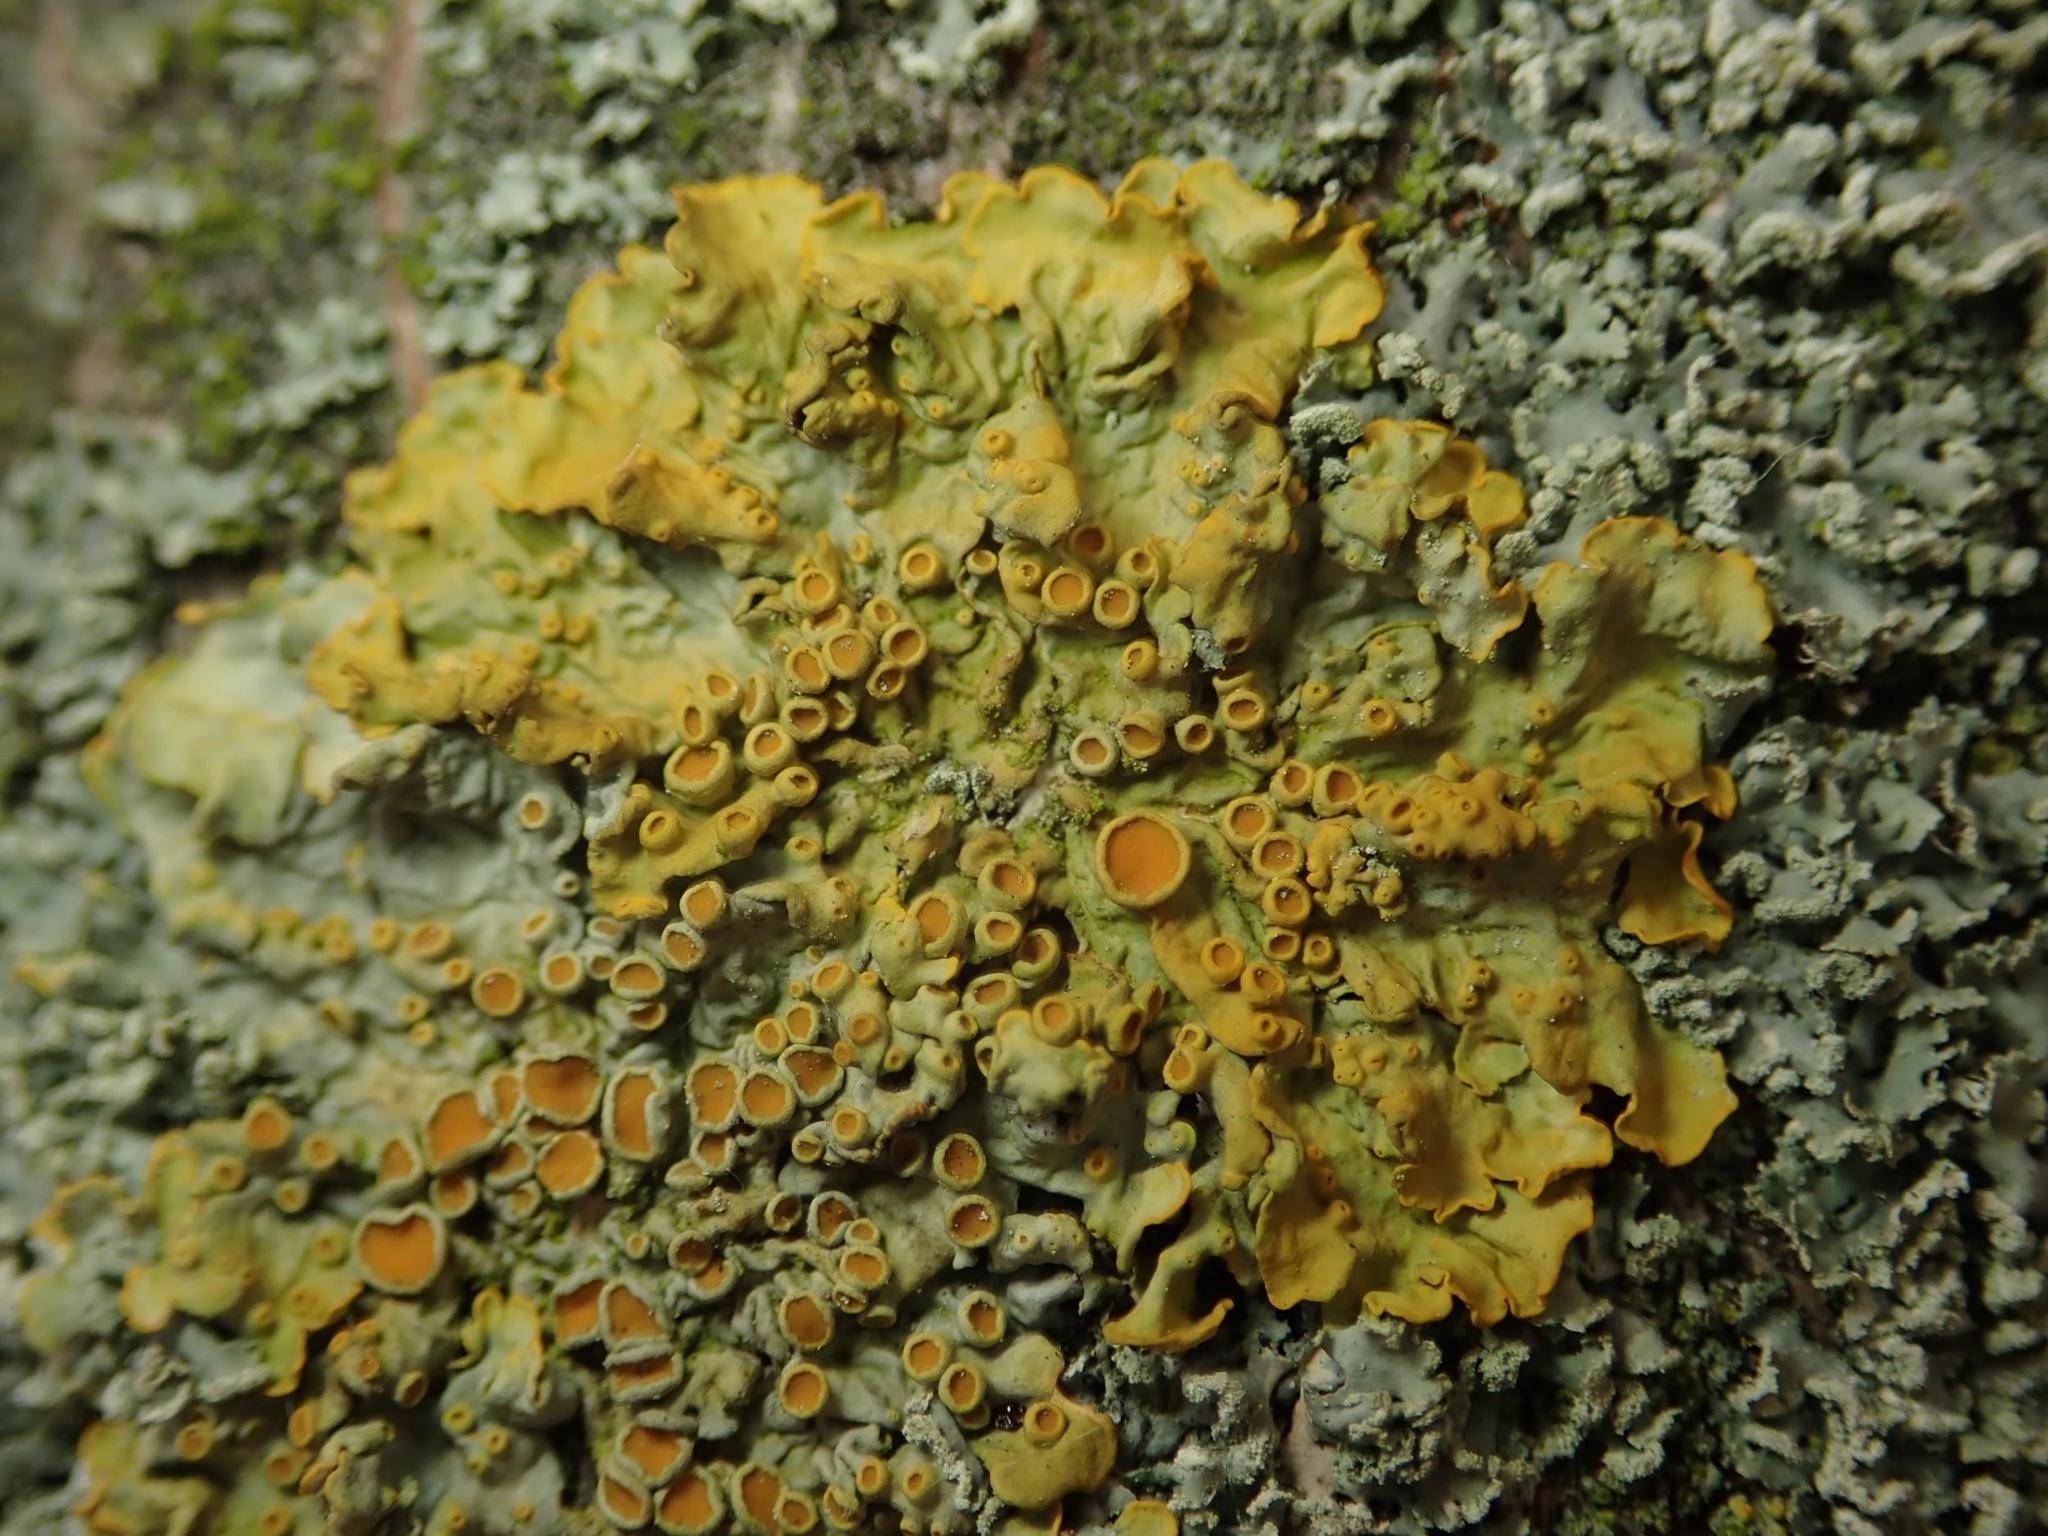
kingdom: Fungi
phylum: Ascomycota
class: Lecanoromycetes
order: Teloschistales
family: Teloschistaceae
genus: Xanthoria
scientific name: Xanthoria parietina
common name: Common orange lichen
